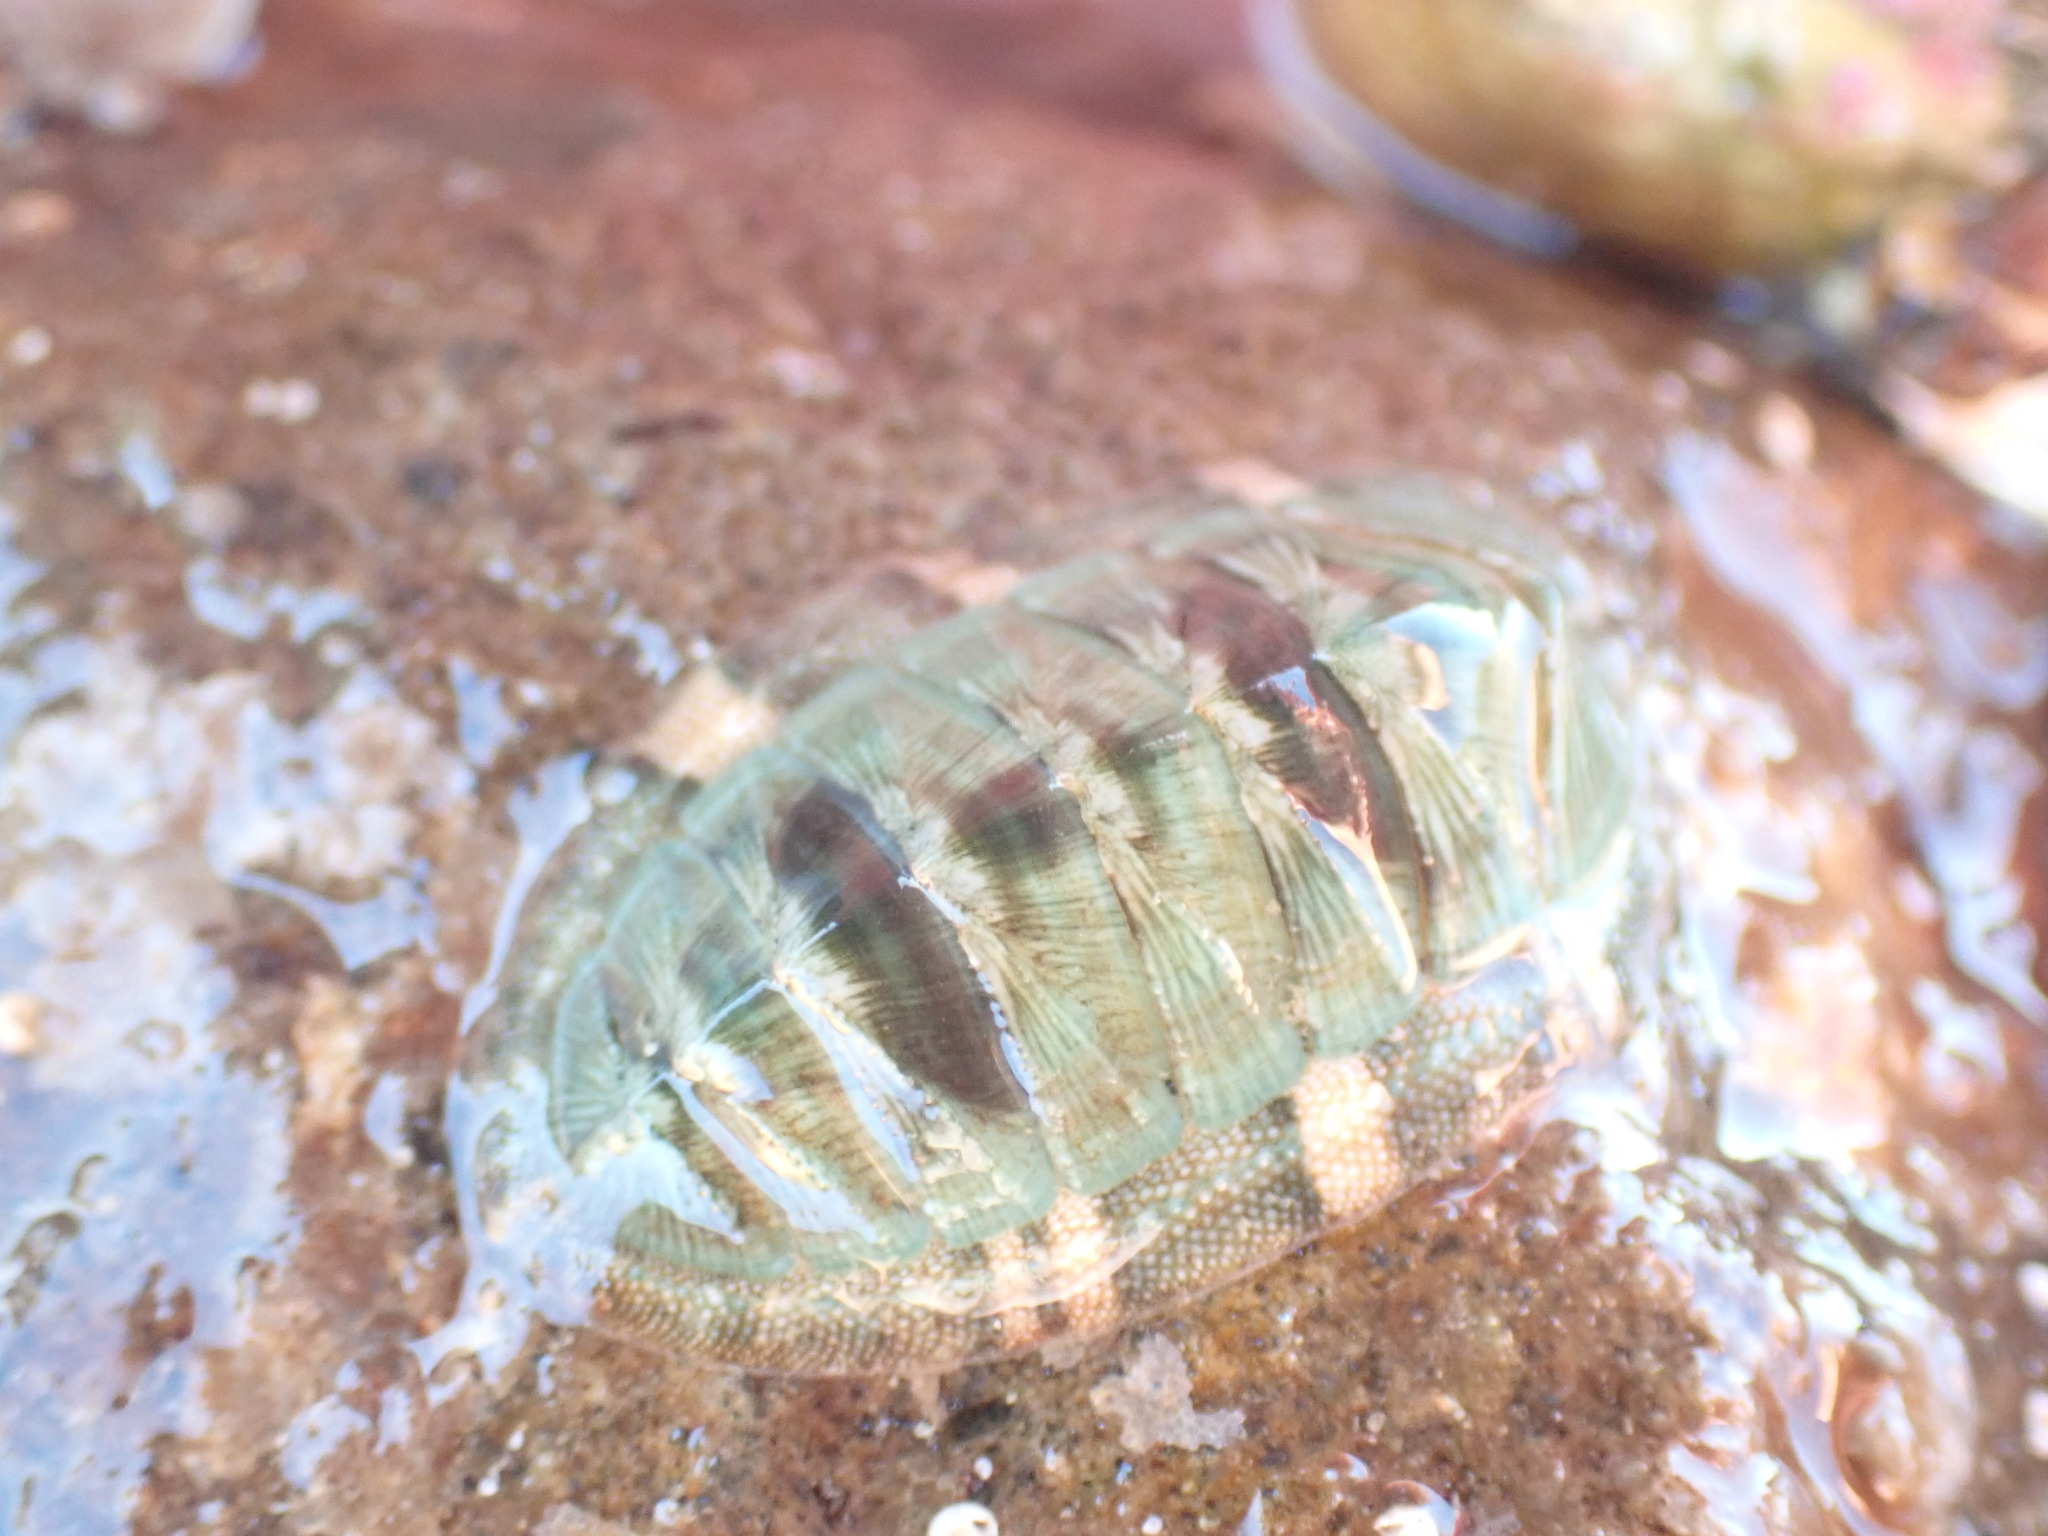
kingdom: Animalia
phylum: Mollusca
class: Polyplacophora
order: Chitonida
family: Chitonidae
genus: Rhyssoplax
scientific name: Rhyssoplax aerea
